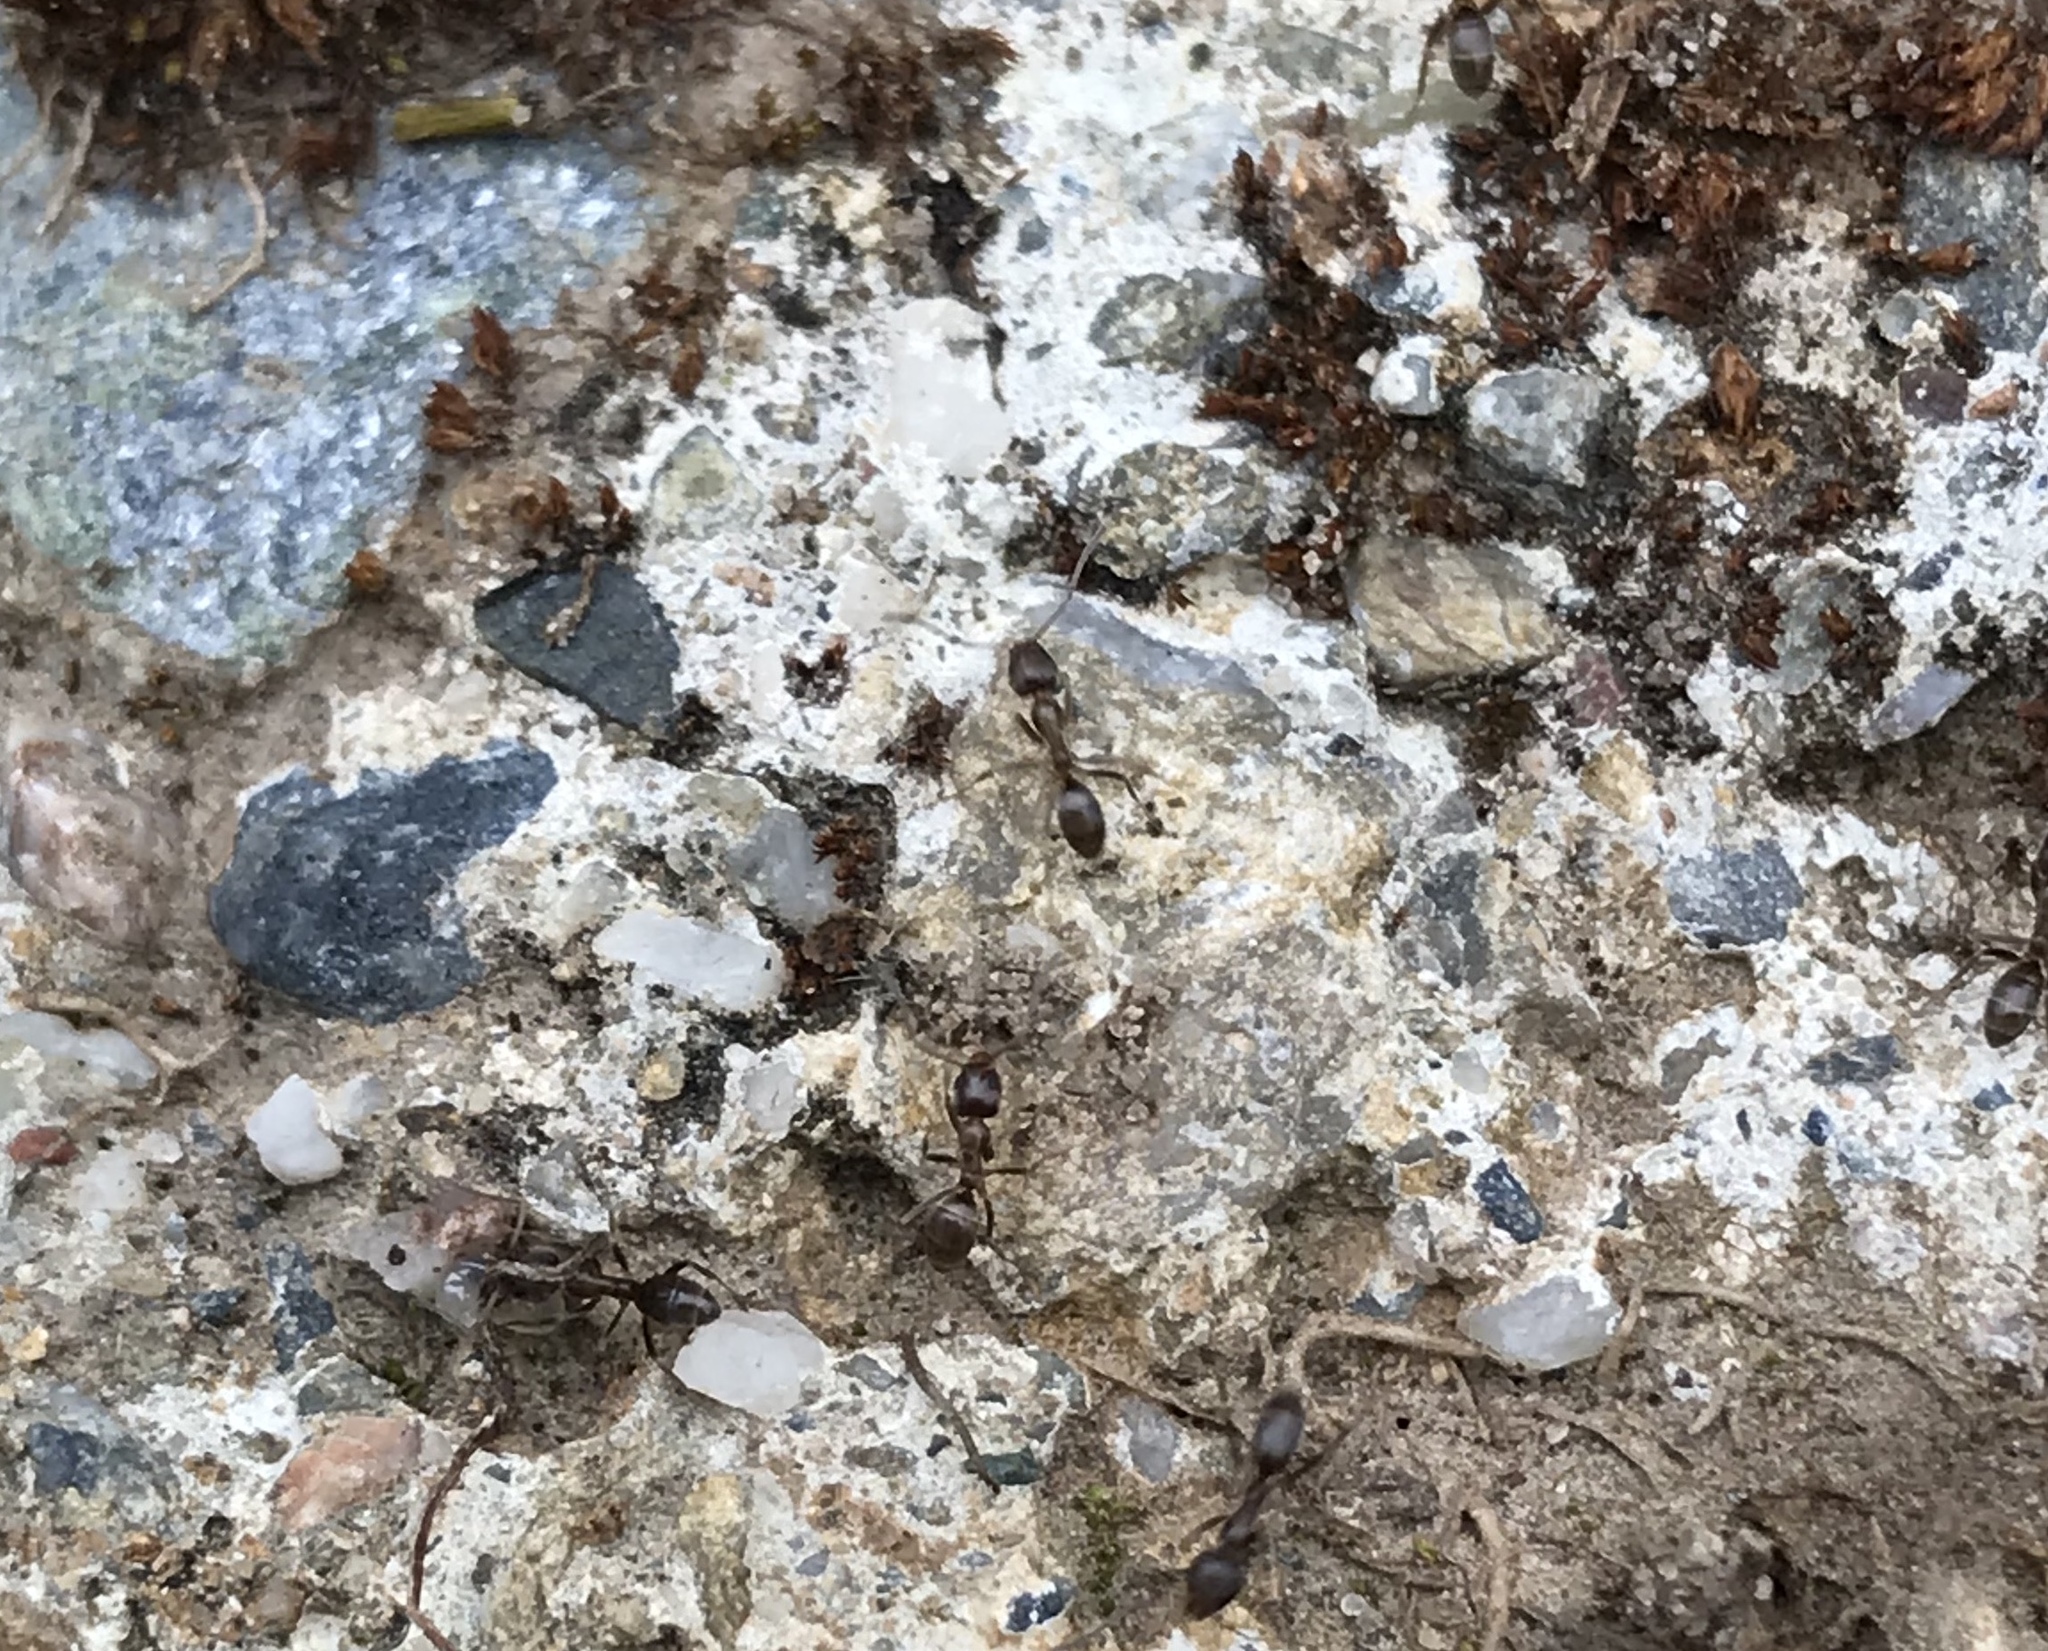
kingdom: Animalia
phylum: Arthropoda
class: Insecta
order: Hymenoptera
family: Formicidae
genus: Linepithema
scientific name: Linepithema humile
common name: Argentine ant
